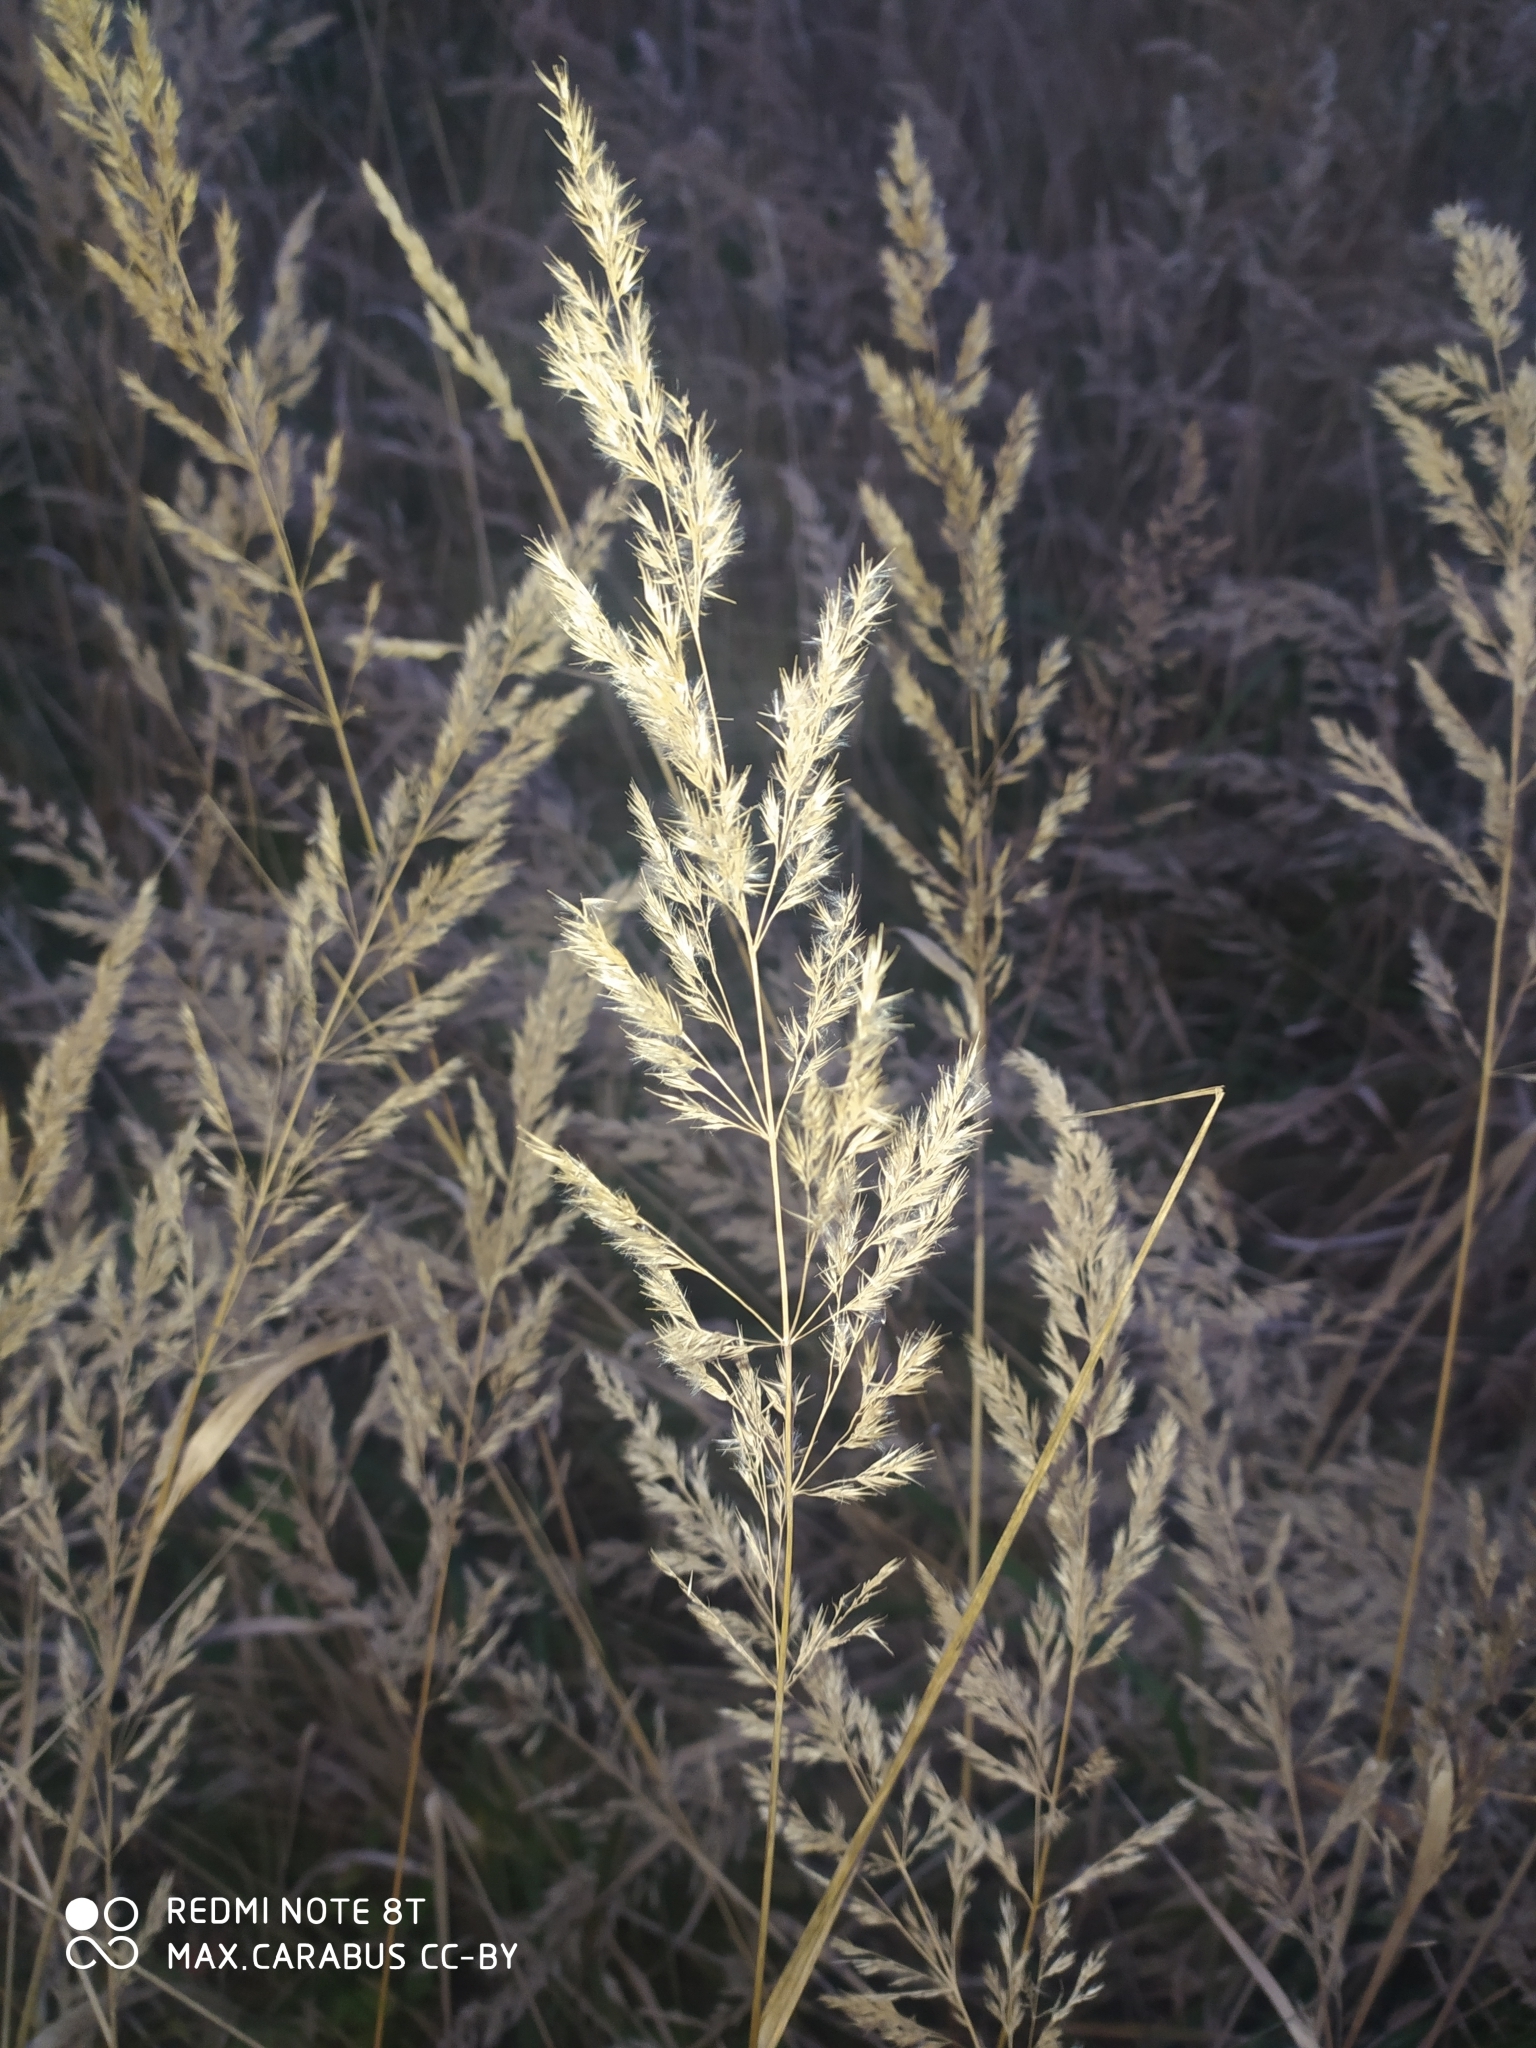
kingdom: Plantae
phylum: Tracheophyta
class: Liliopsida
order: Poales
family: Poaceae
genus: Calamagrostis
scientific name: Calamagrostis epigejos
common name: Wood small-reed
